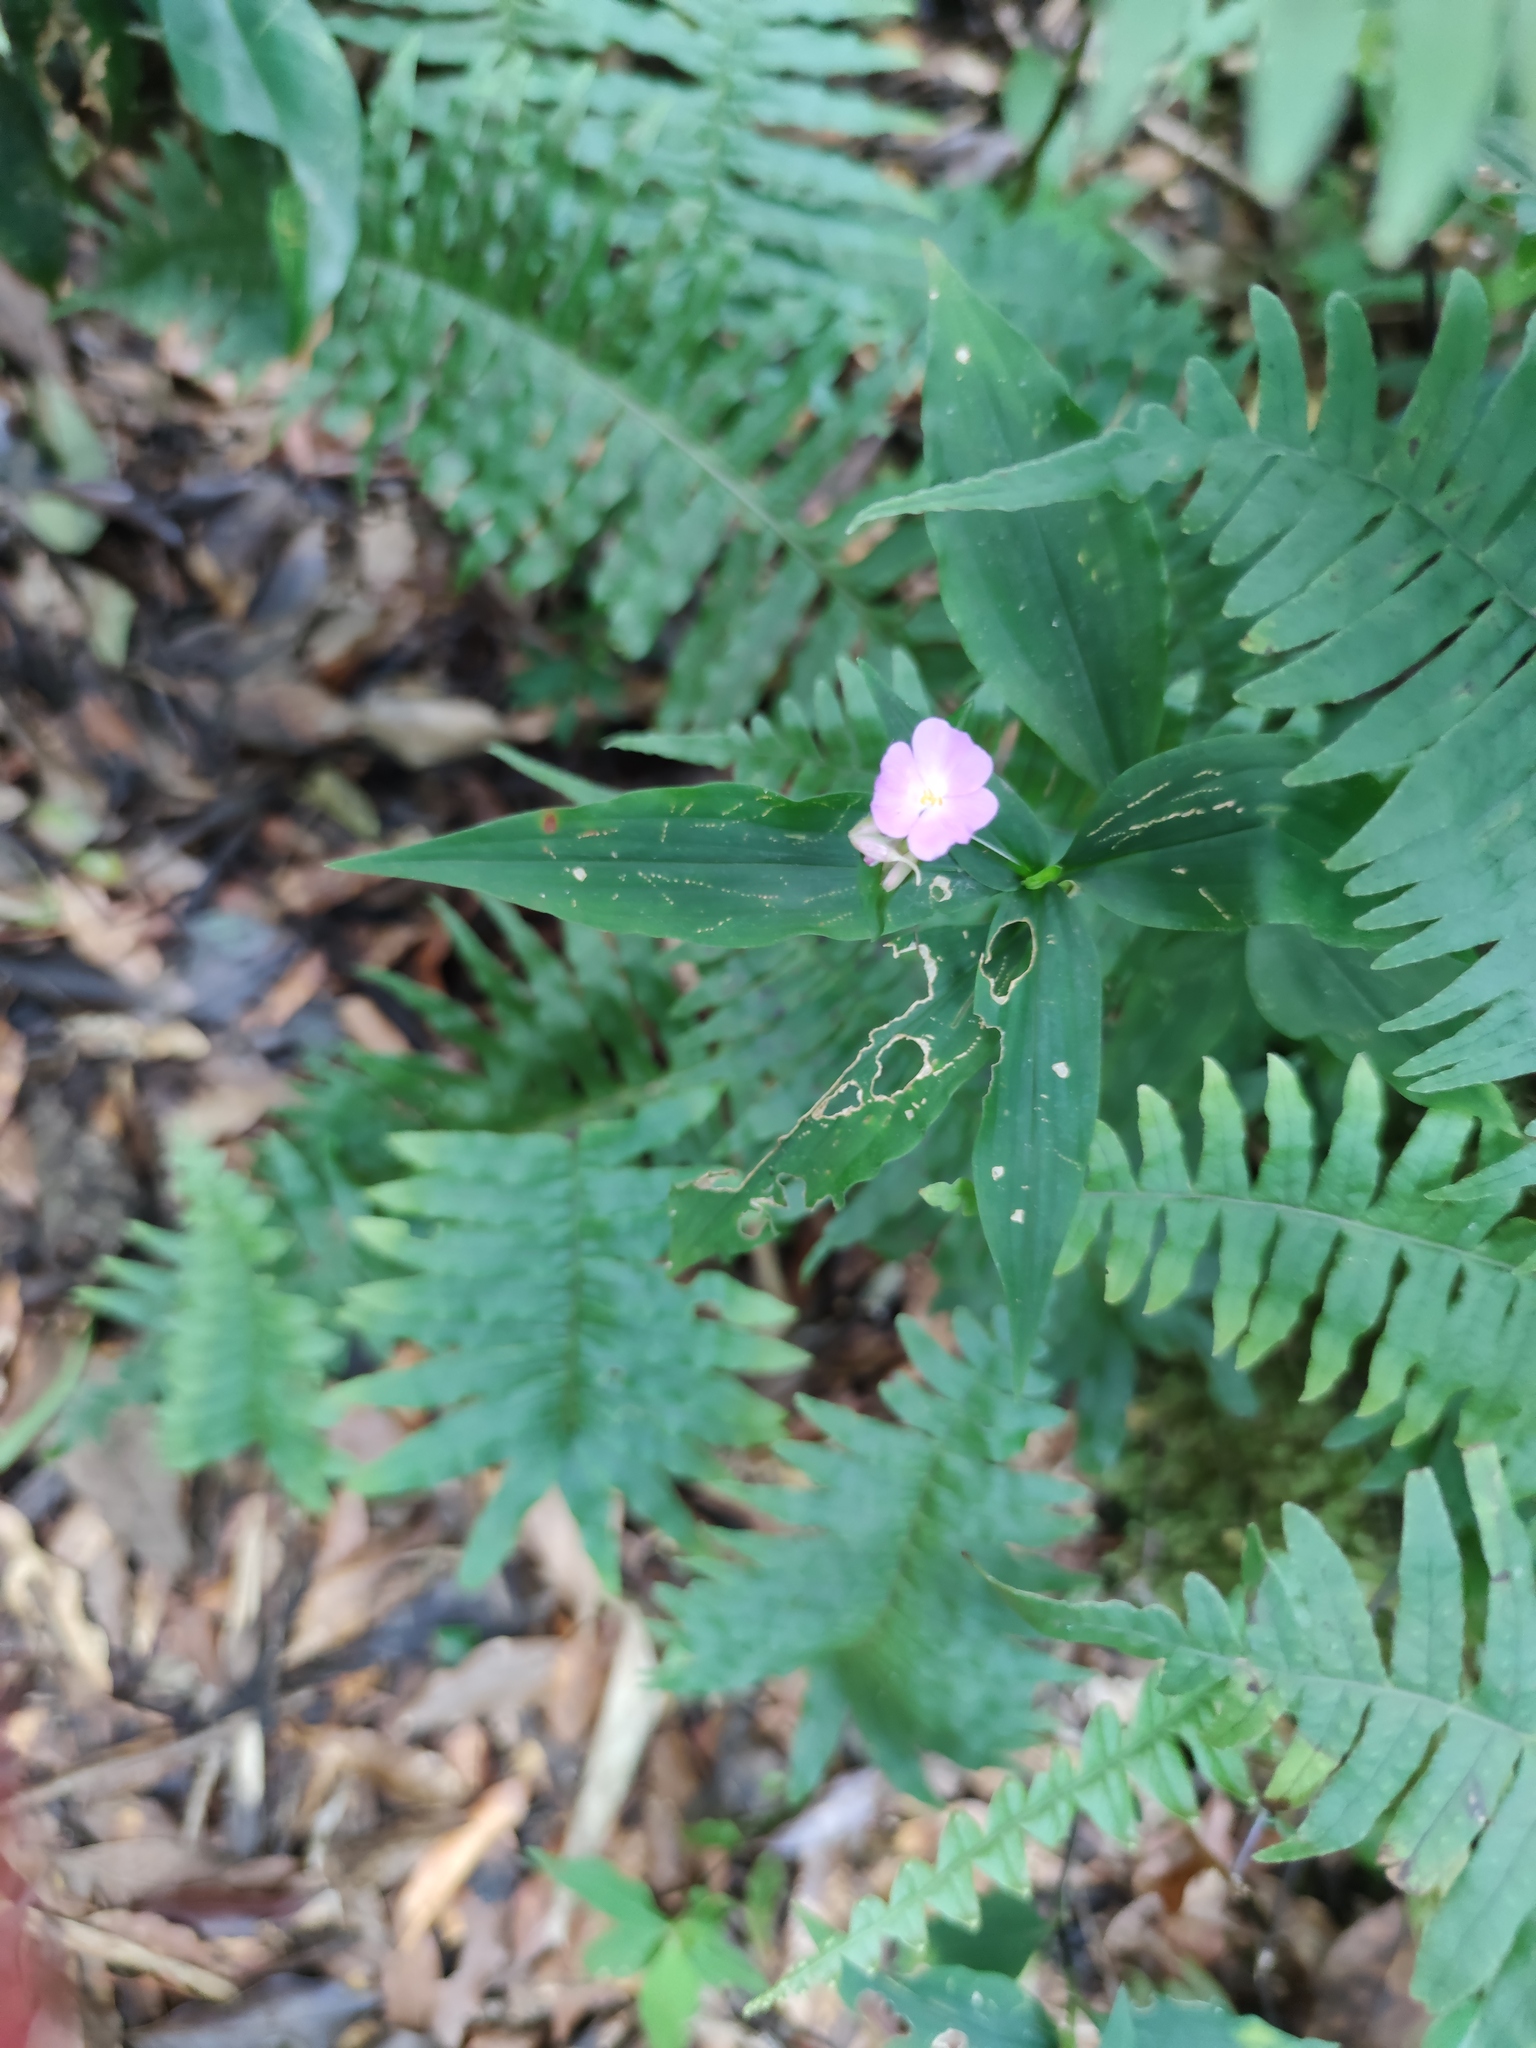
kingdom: Plantae
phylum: Tracheophyta
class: Liliopsida
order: Commelinales
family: Commelinaceae
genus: Tradescantia
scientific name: Tradescantia commelinoides
